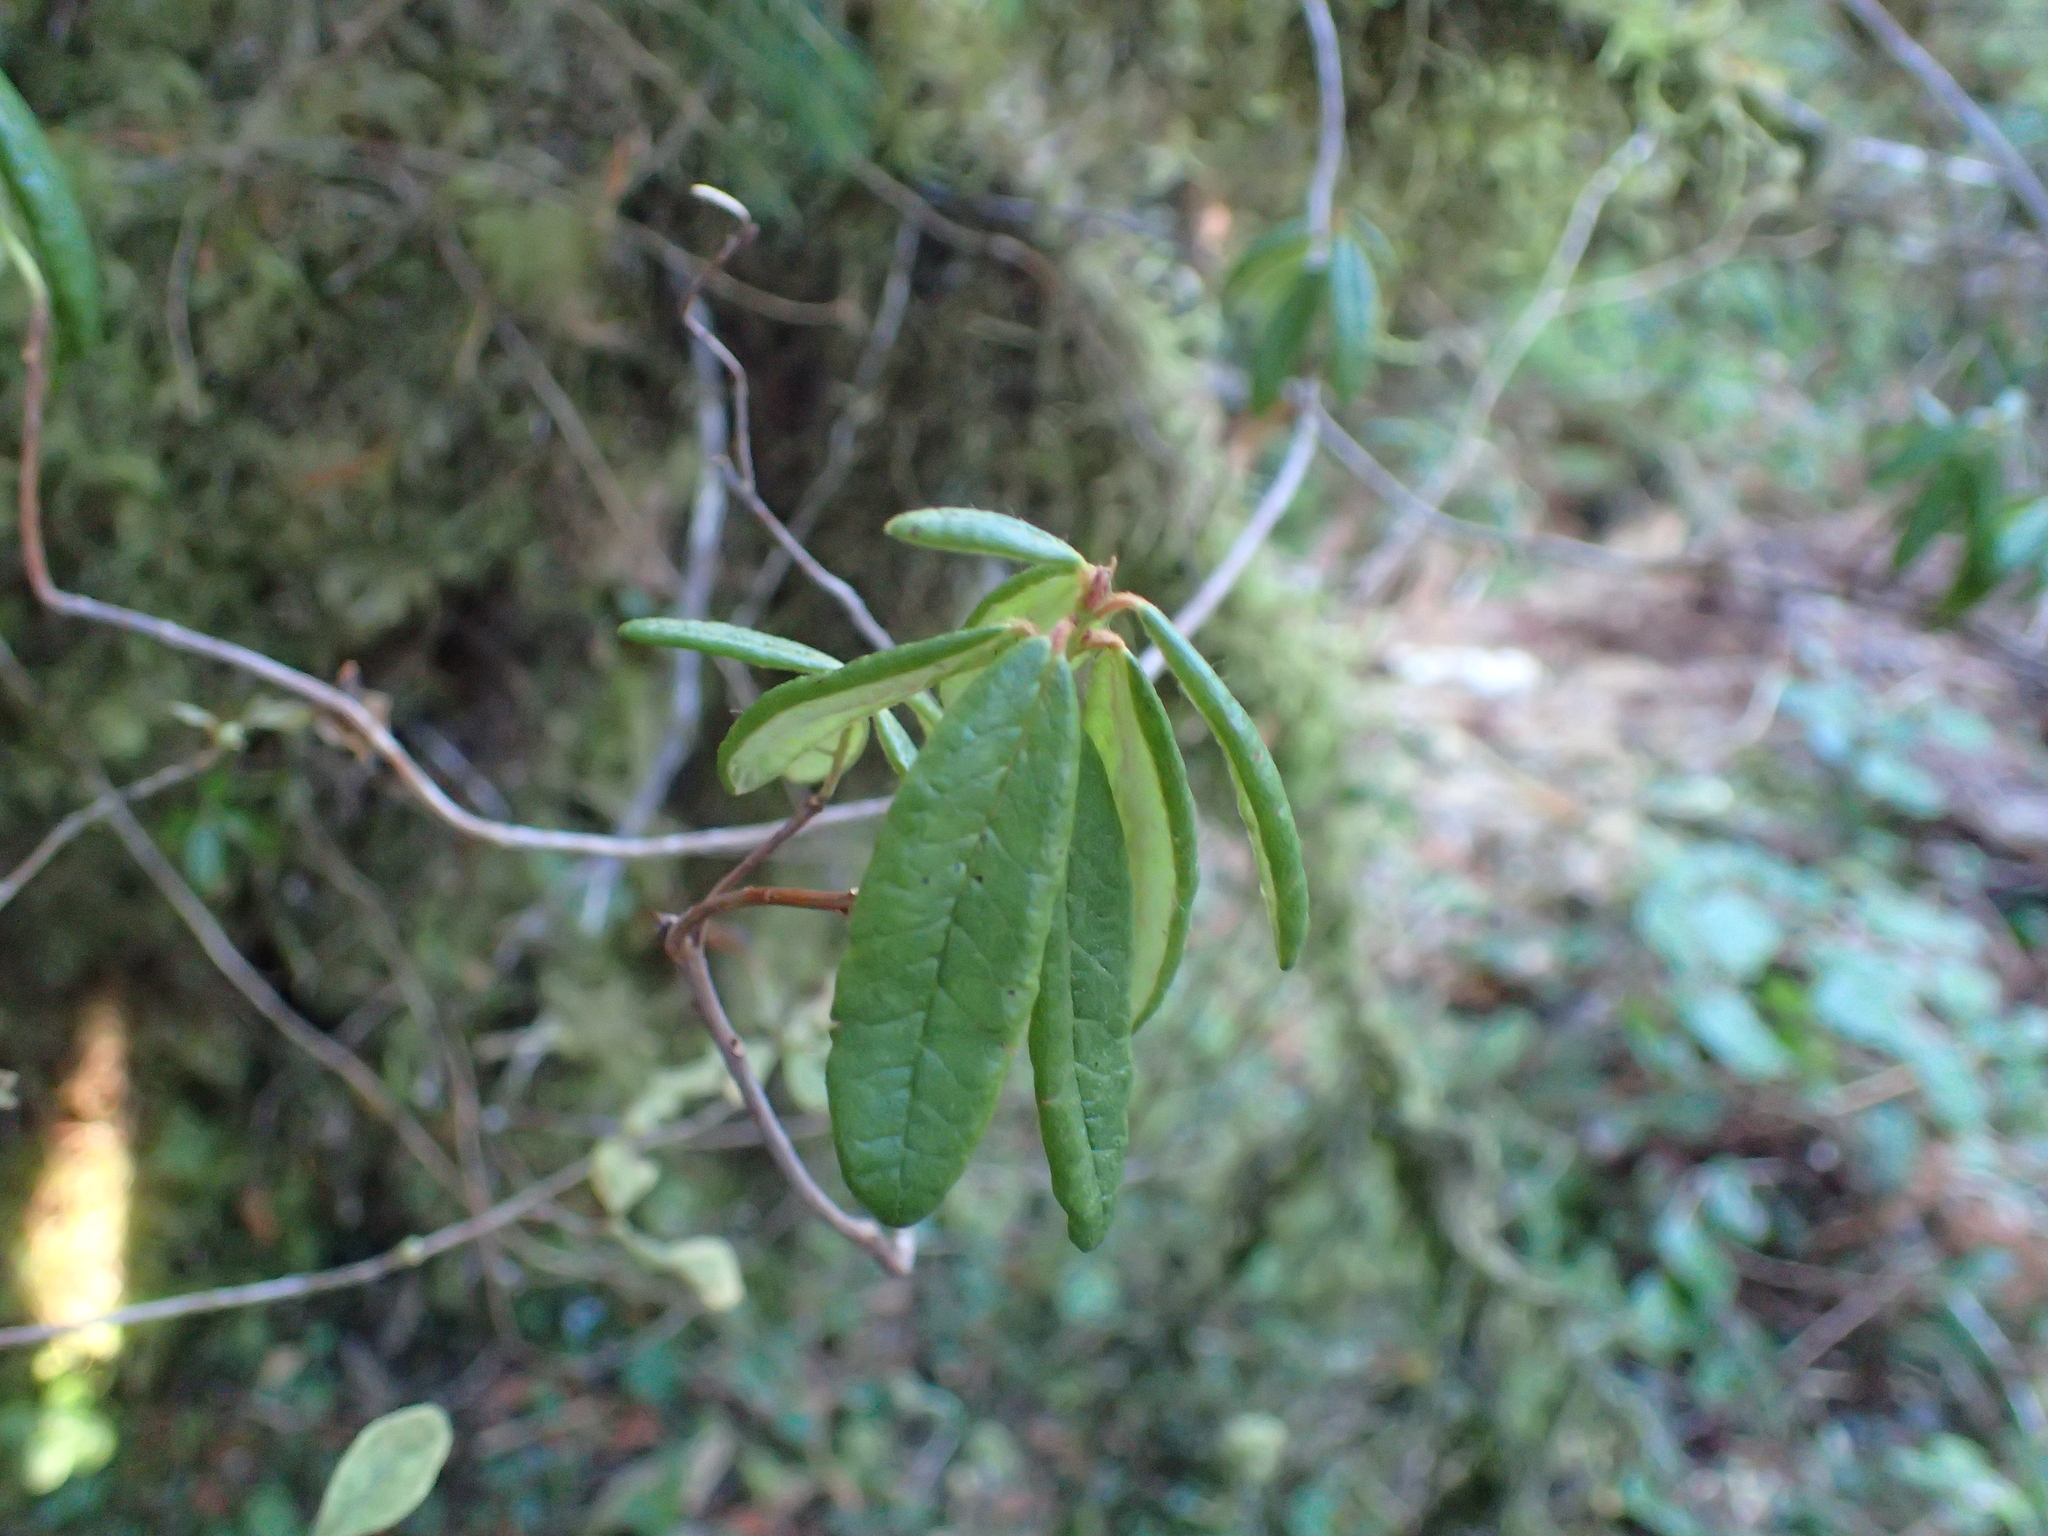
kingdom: Plantae
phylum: Tracheophyta
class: Magnoliopsida
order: Ericales
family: Ericaceae
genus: Rhododendron
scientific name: Rhododendron groenlandicum
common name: Bog labrador tea
